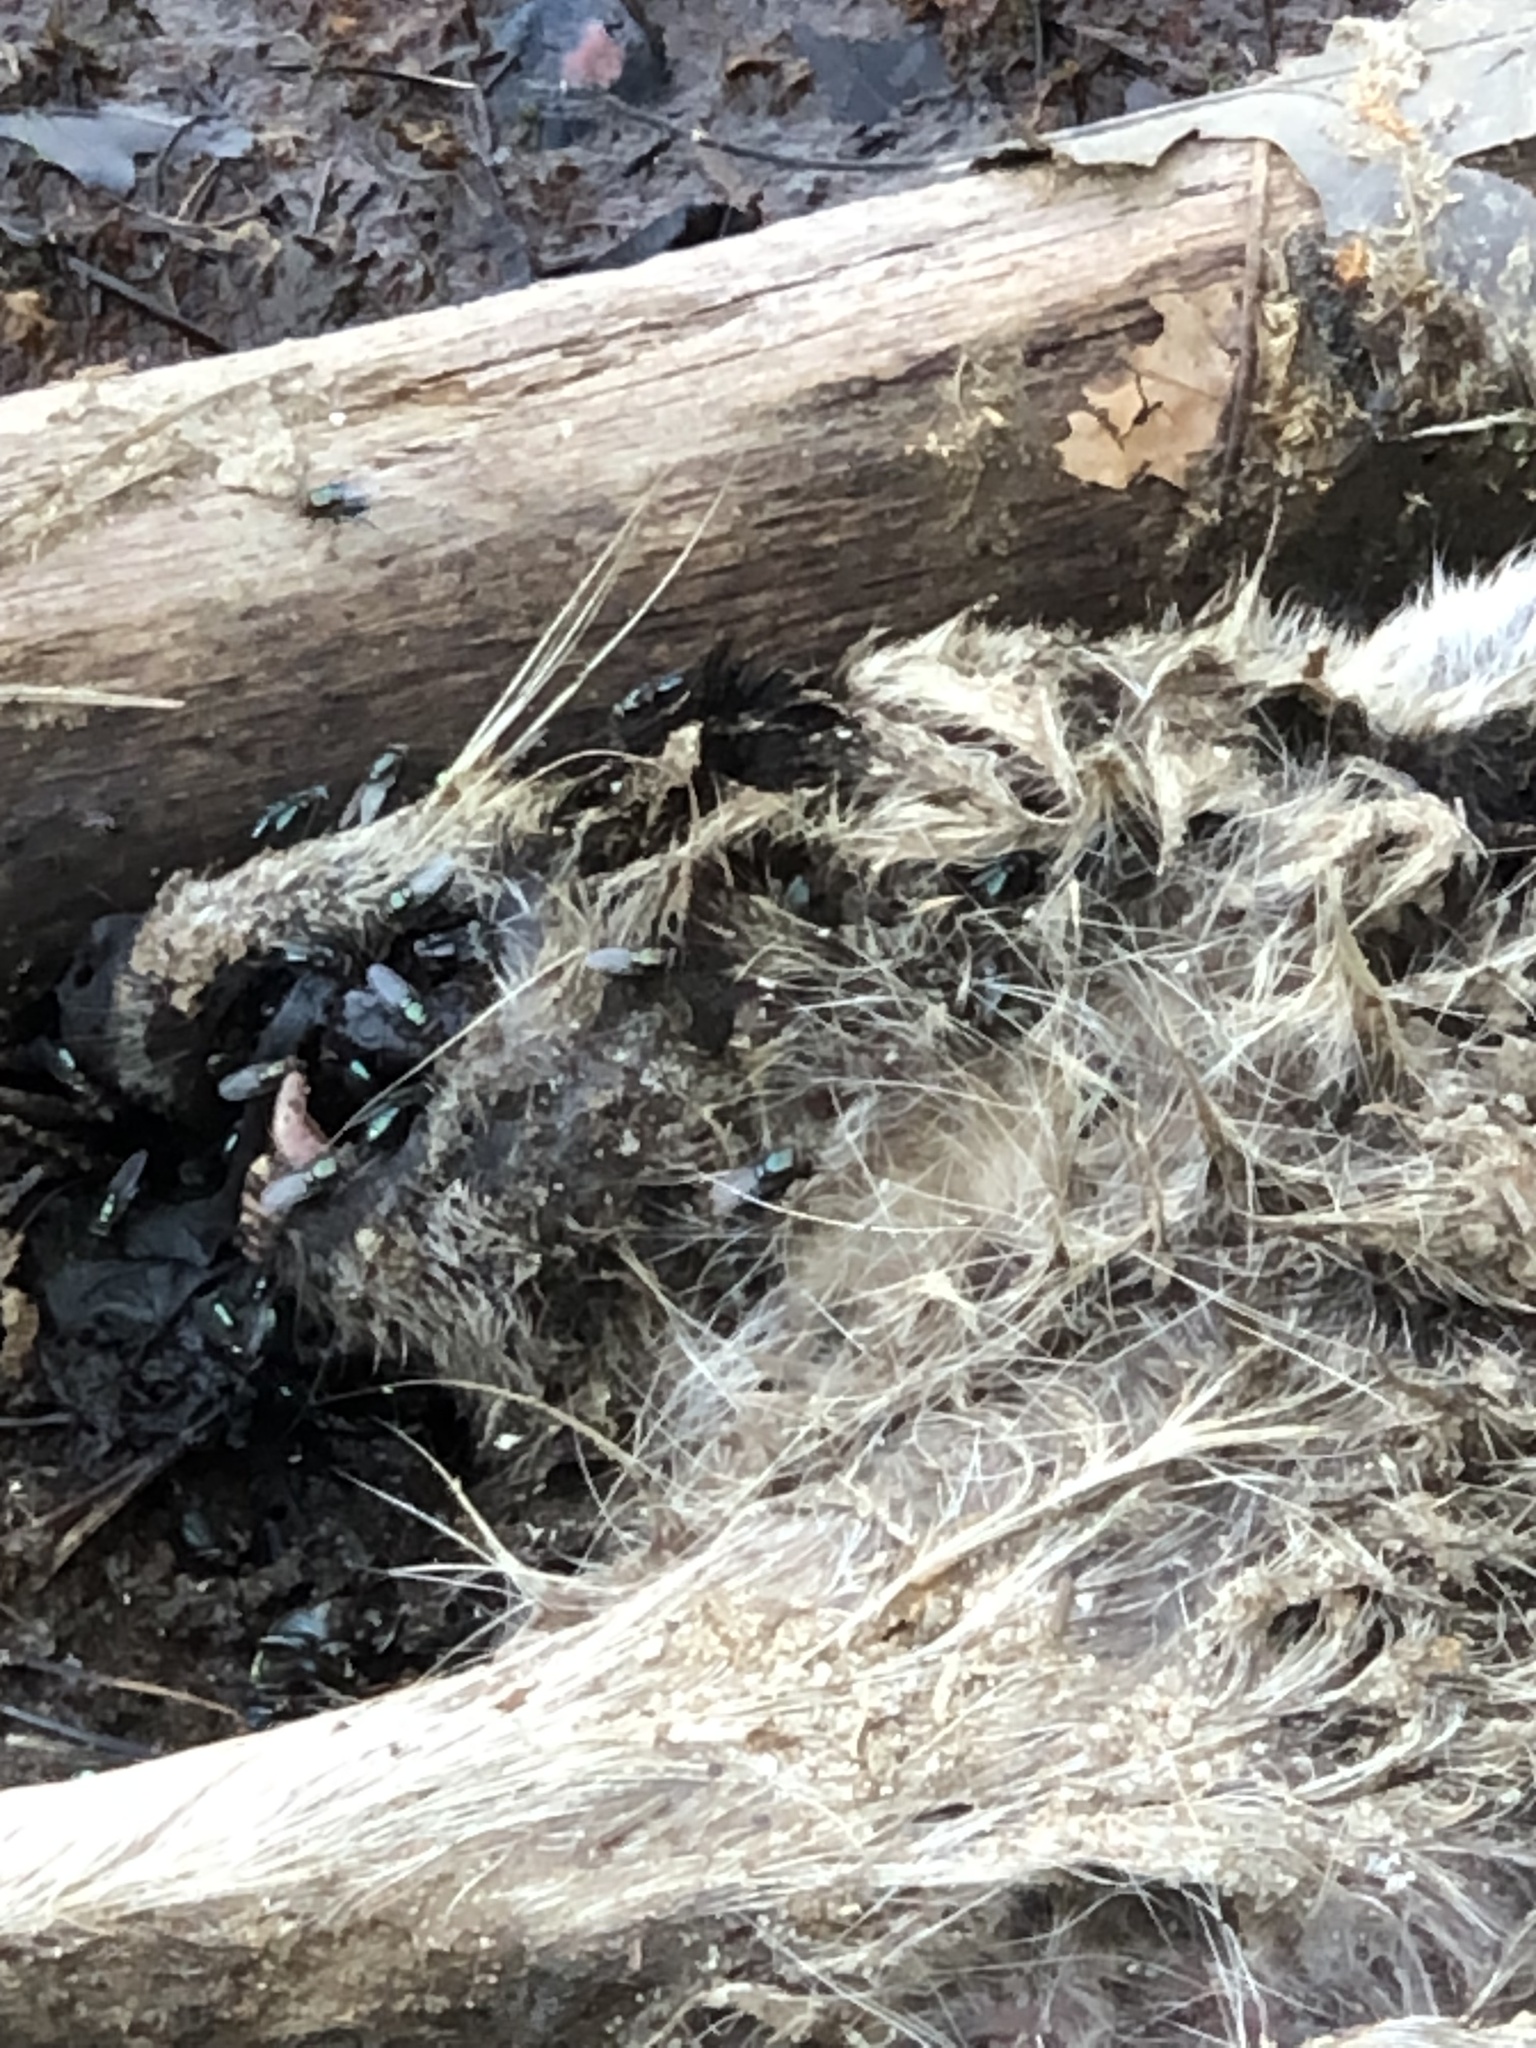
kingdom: Animalia
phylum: Chordata
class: Mammalia
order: Carnivora
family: Procyonidae
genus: Procyon
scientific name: Procyon lotor
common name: Raccoon
